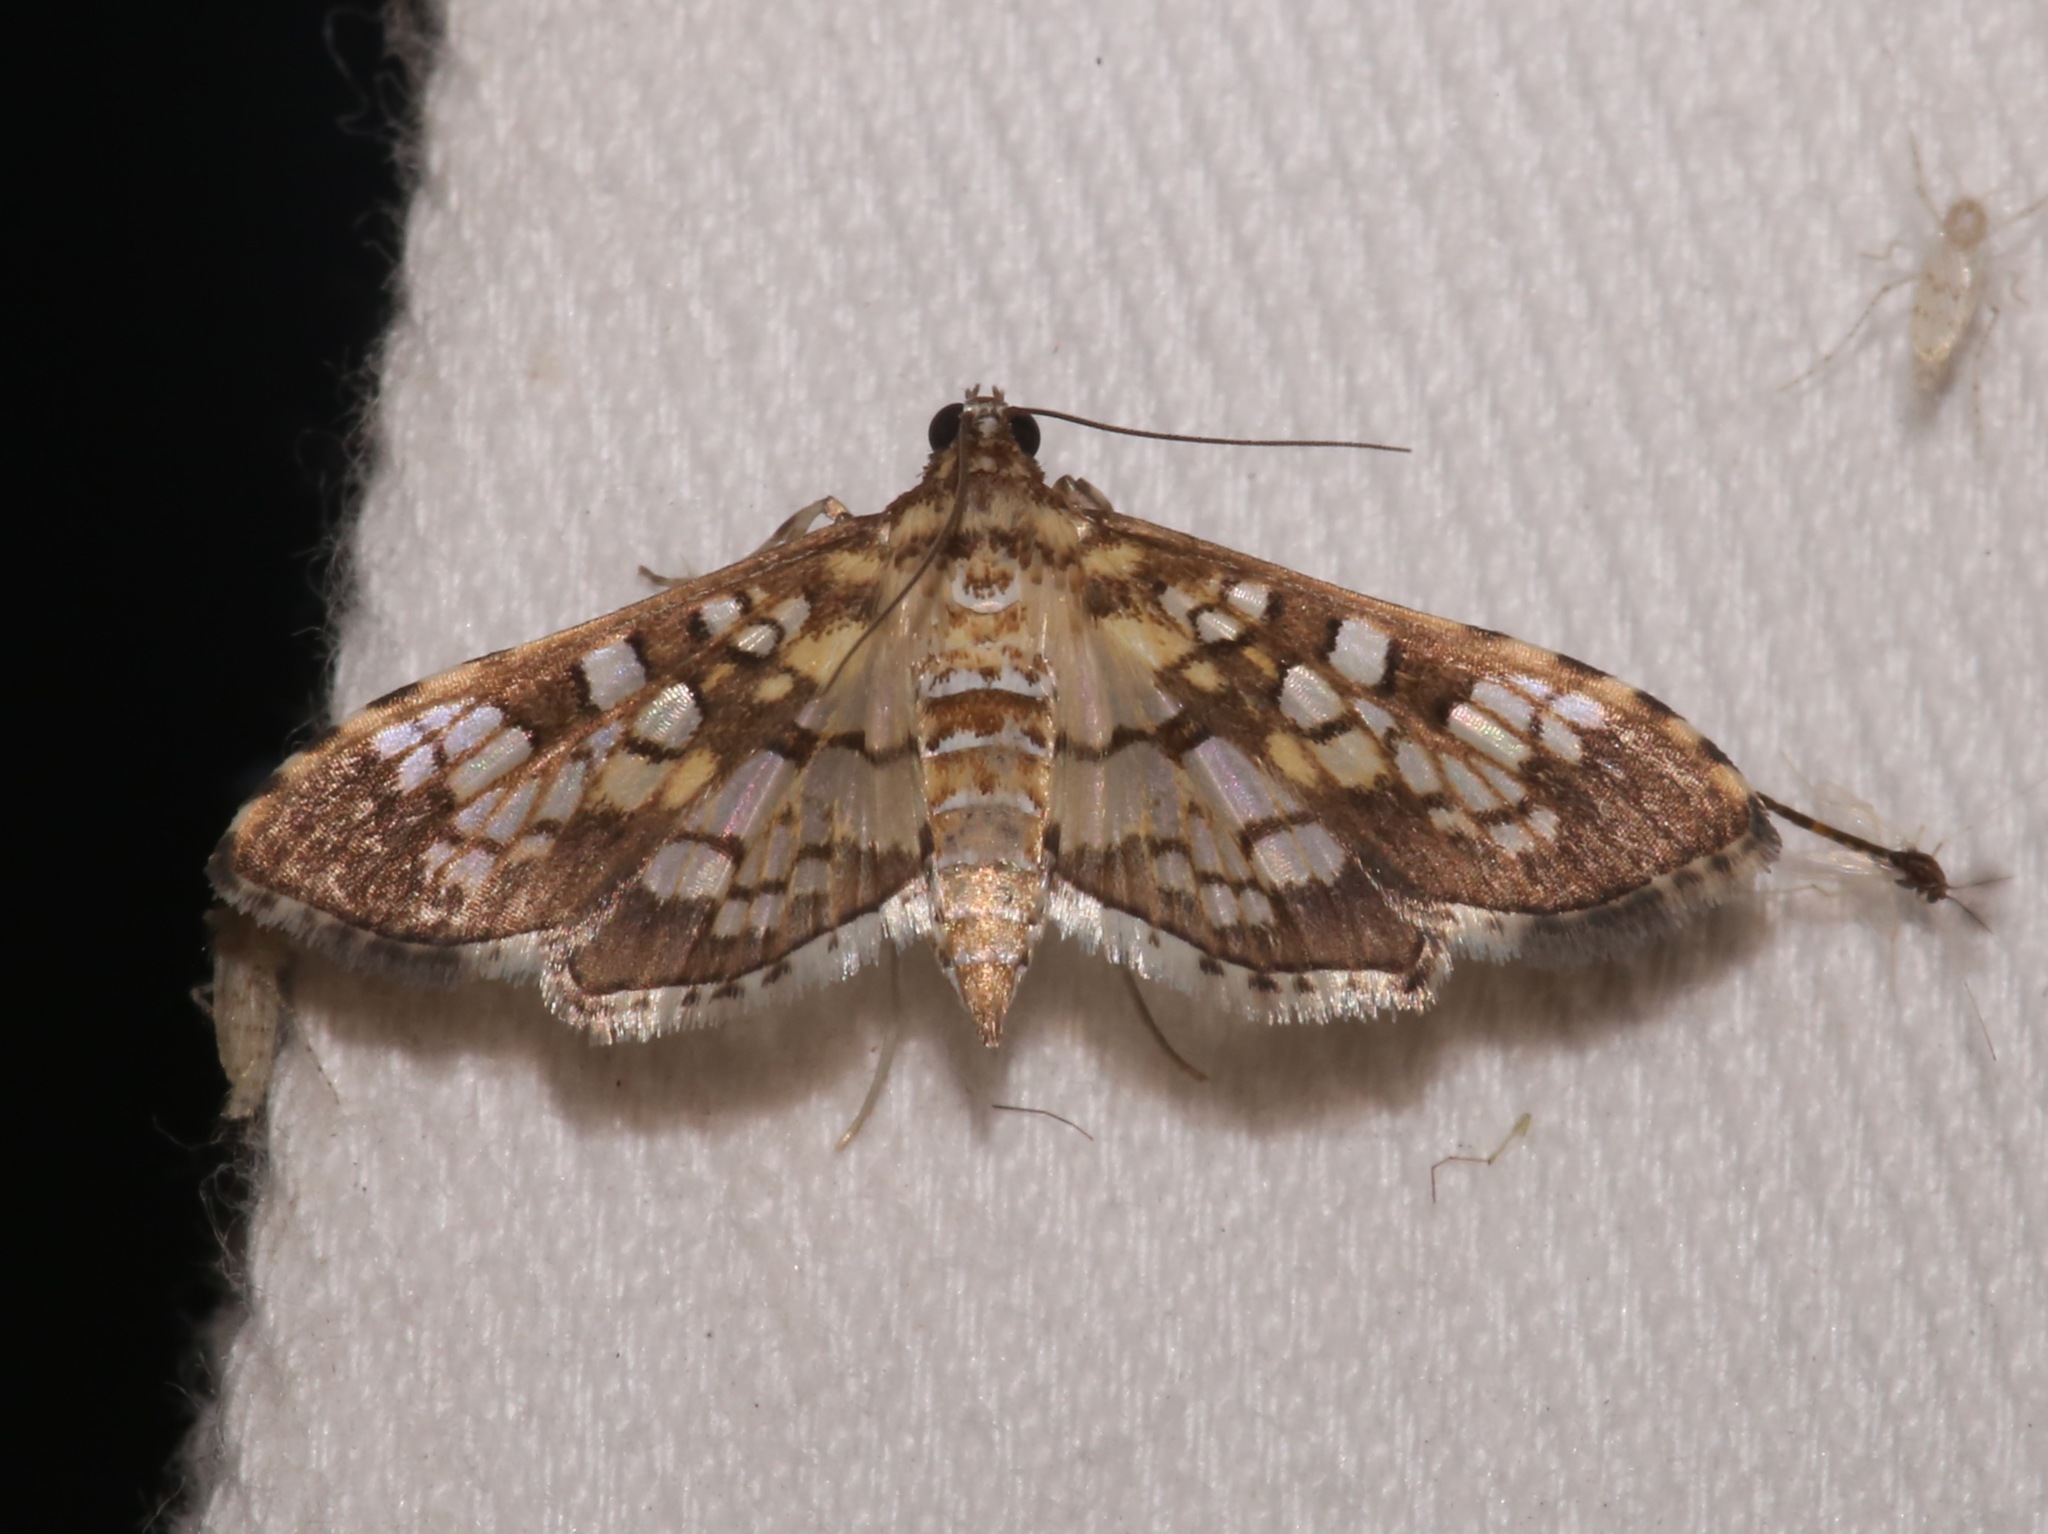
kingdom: Animalia
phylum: Arthropoda
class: Insecta
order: Lepidoptera
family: Crambidae
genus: Samea
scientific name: Samea ecclesialis
